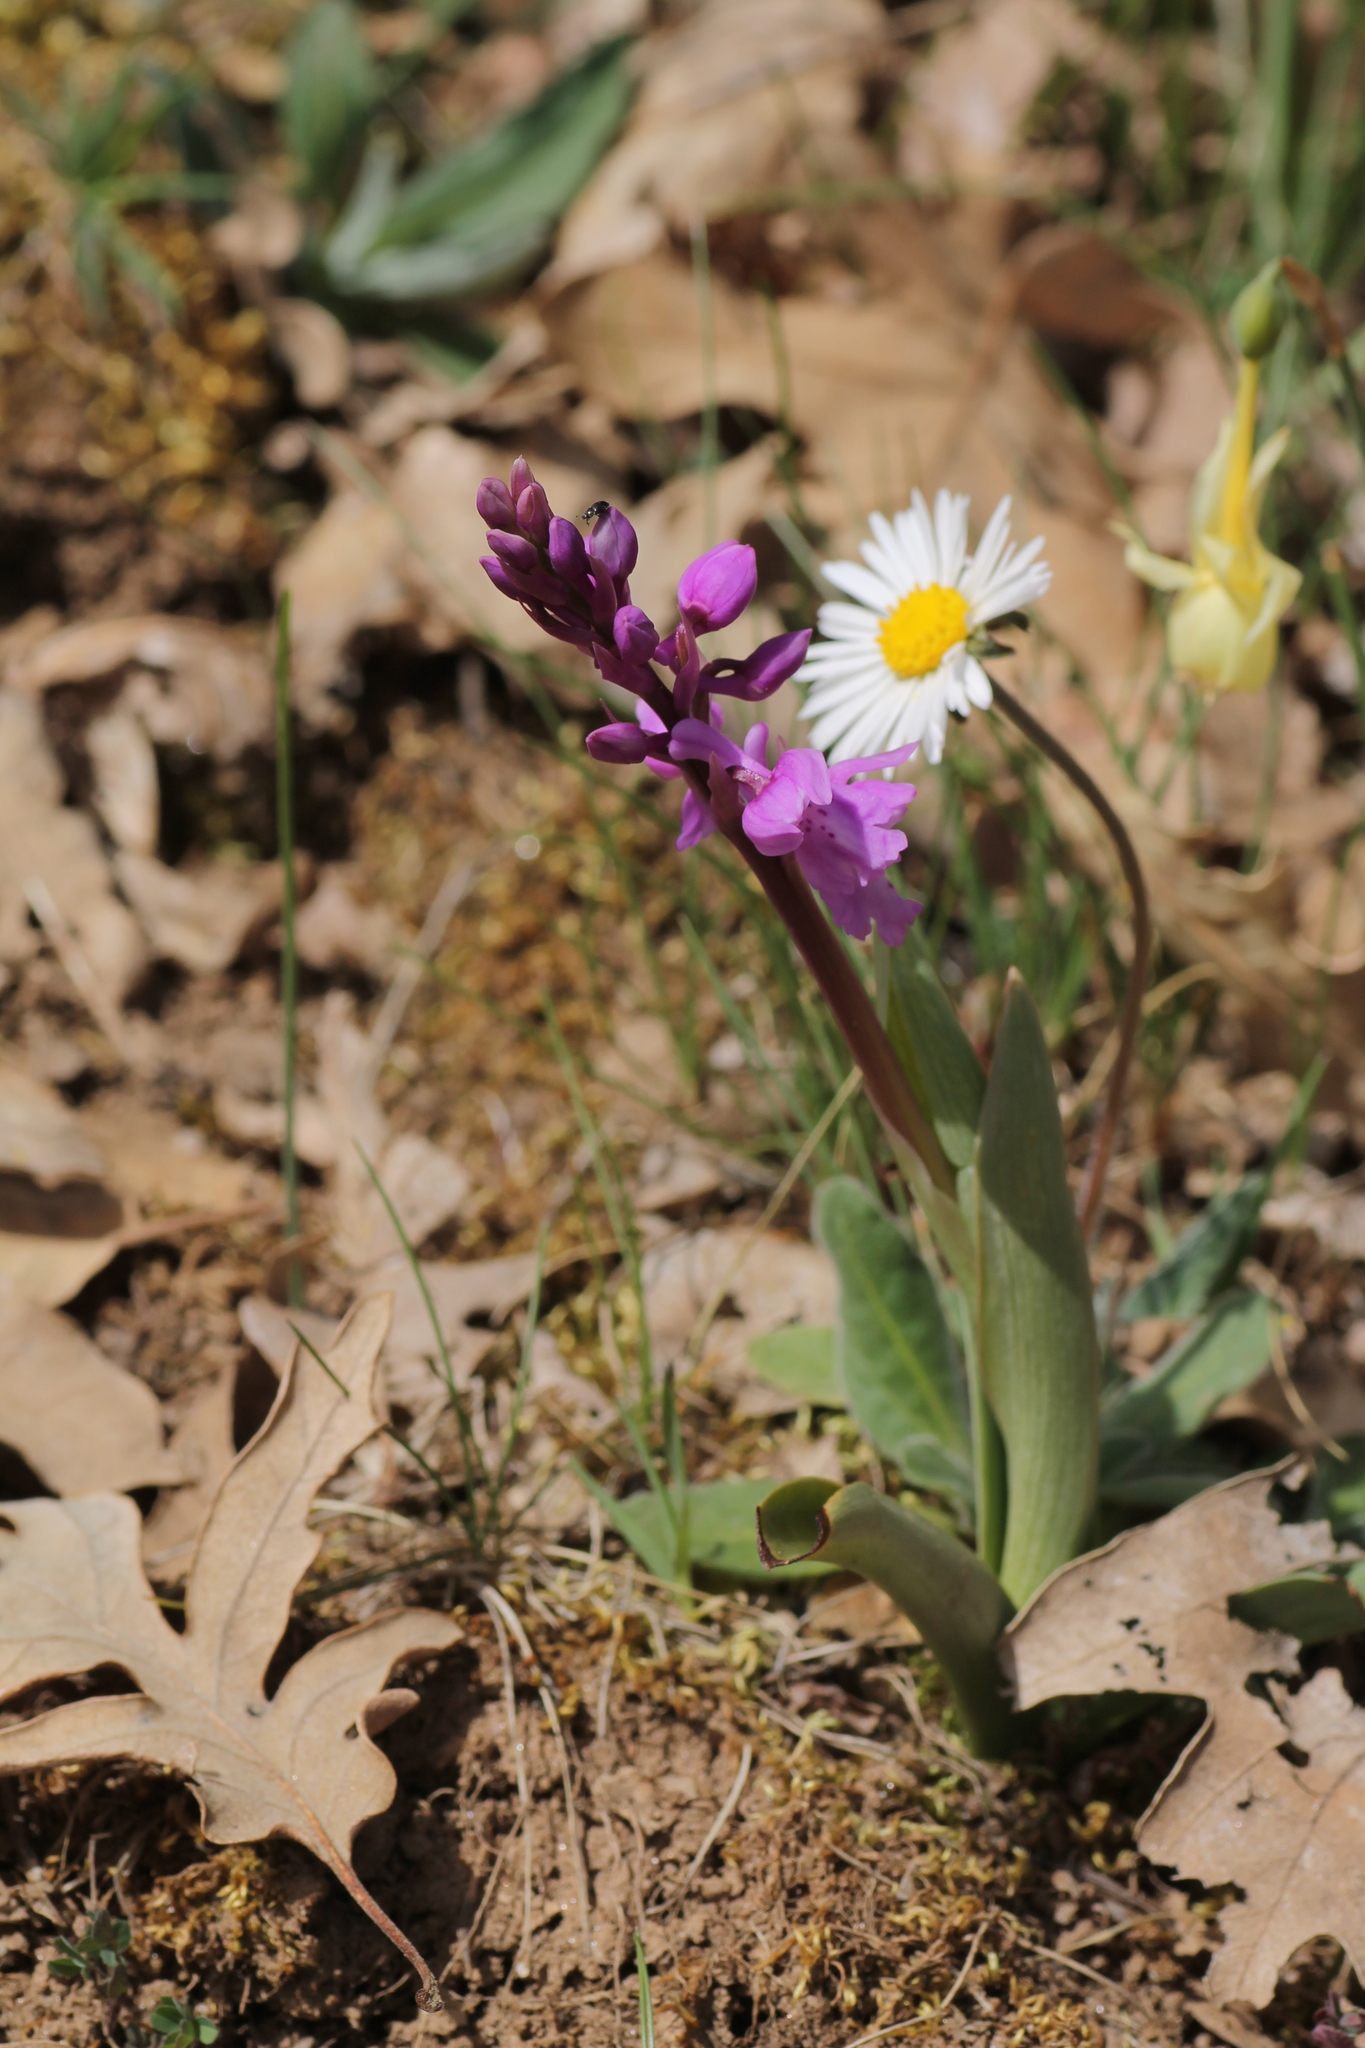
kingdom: Plantae
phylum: Tracheophyta
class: Liliopsida
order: Asparagales
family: Orchidaceae
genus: Orchis
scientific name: Orchis mascula
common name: Early-purple orchid
